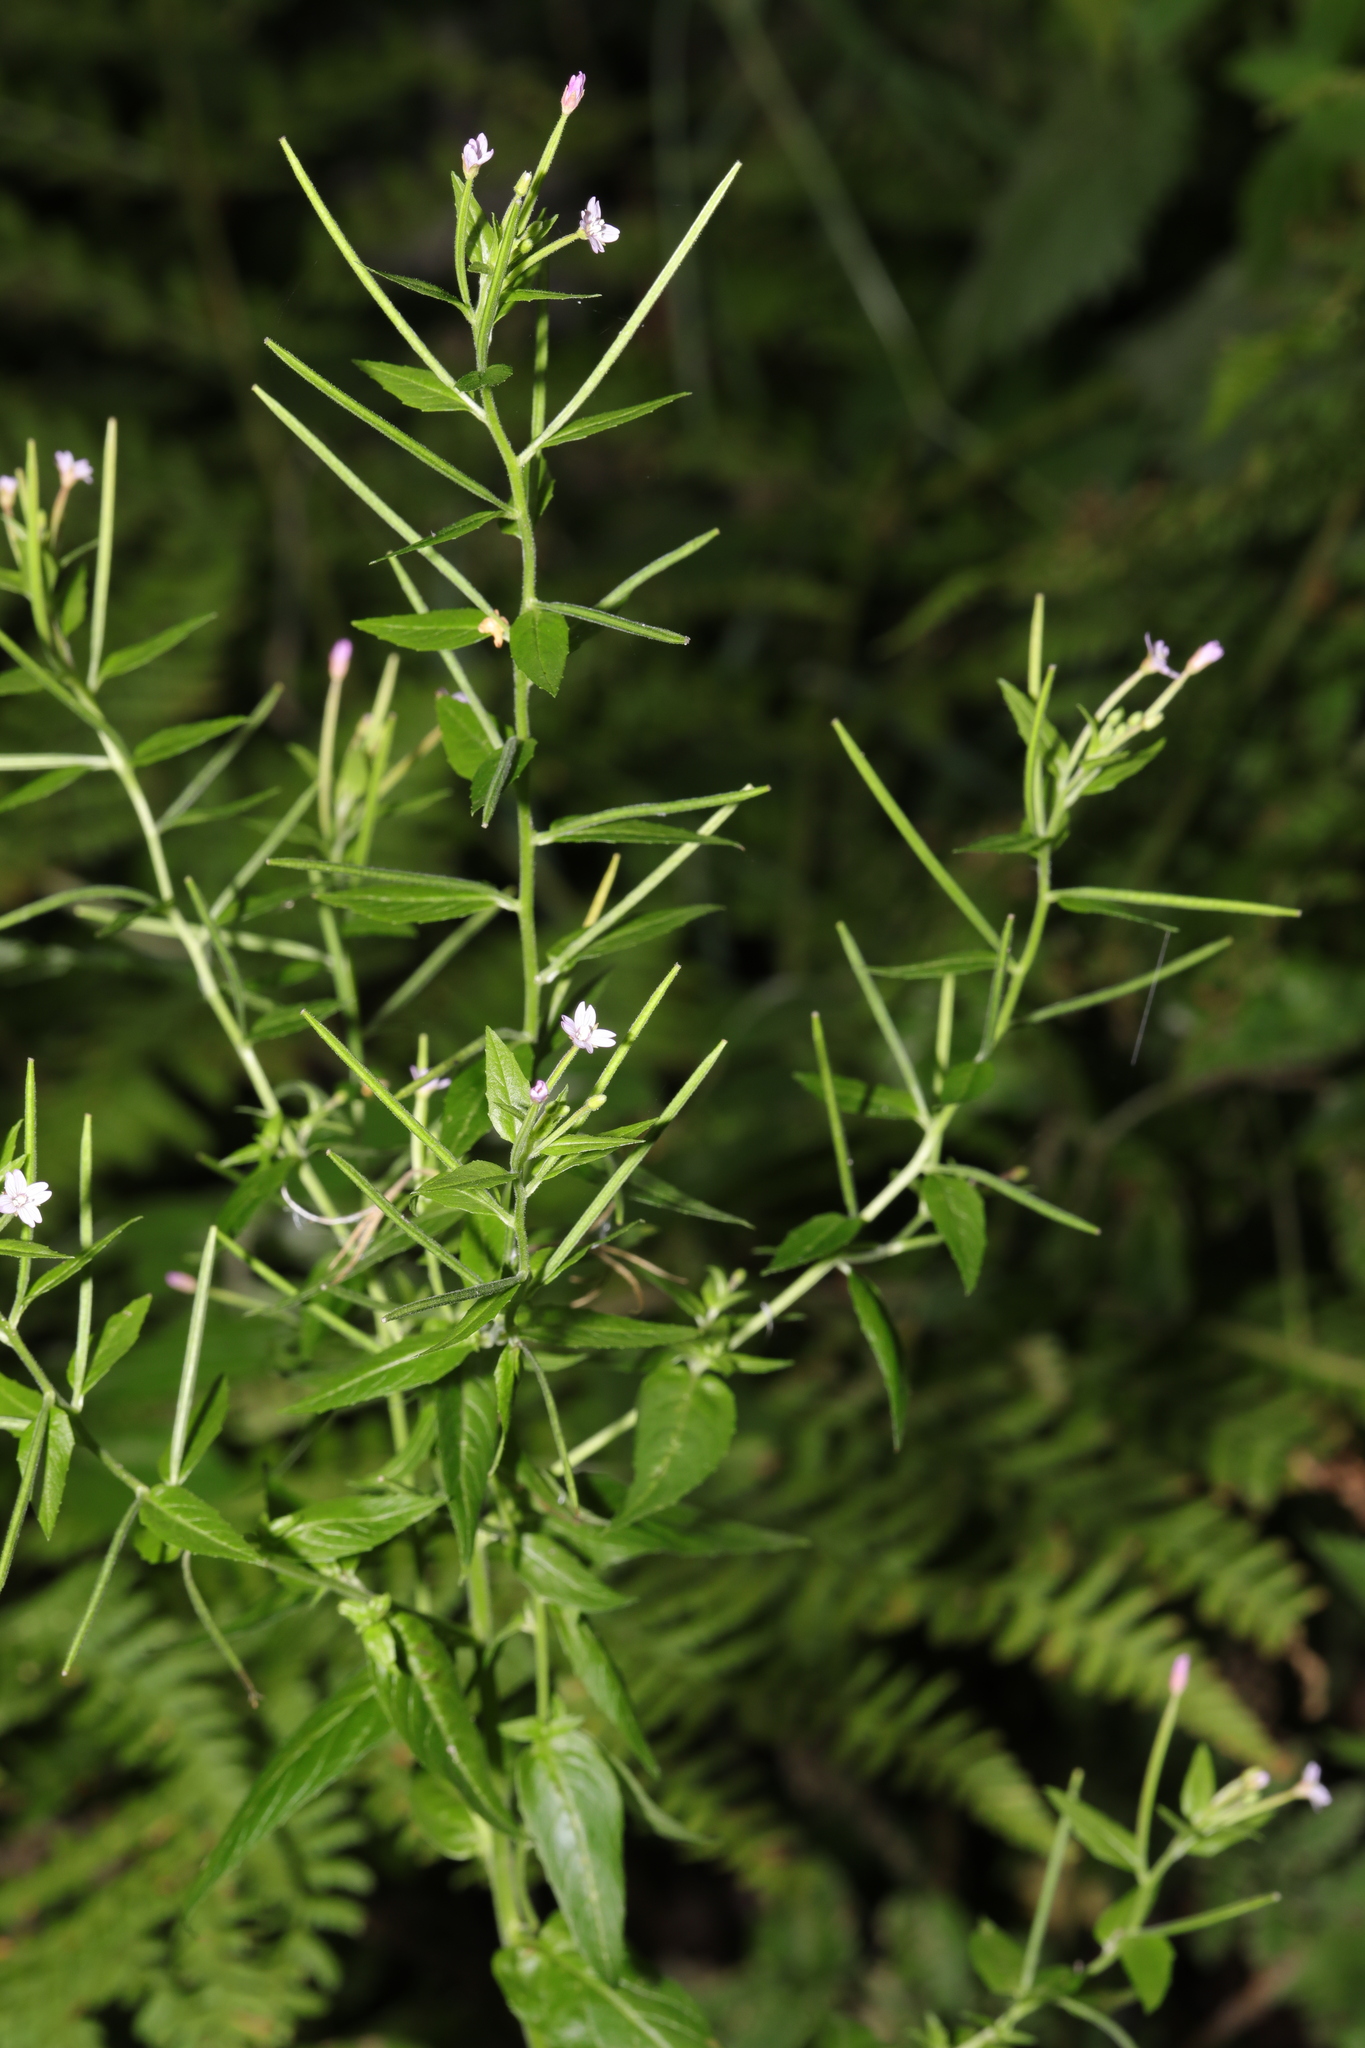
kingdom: Plantae
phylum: Tracheophyta
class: Magnoliopsida
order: Myrtales
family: Onagraceae
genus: Epilobium
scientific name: Epilobium ciliatum
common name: American willowherb
